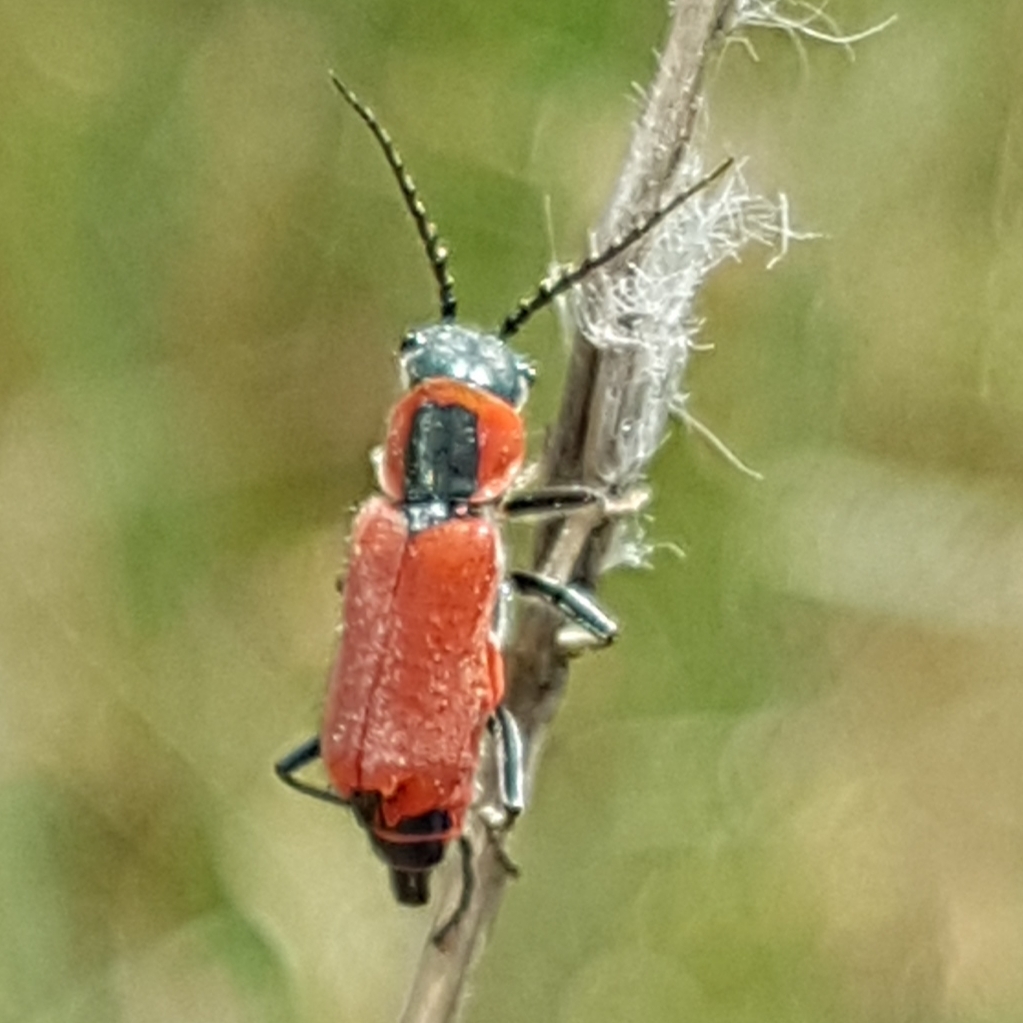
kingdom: Animalia
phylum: Arthropoda
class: Insecta
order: Coleoptera
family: Malachiidae
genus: Clanoptilus
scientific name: Clanoptilus rufus
